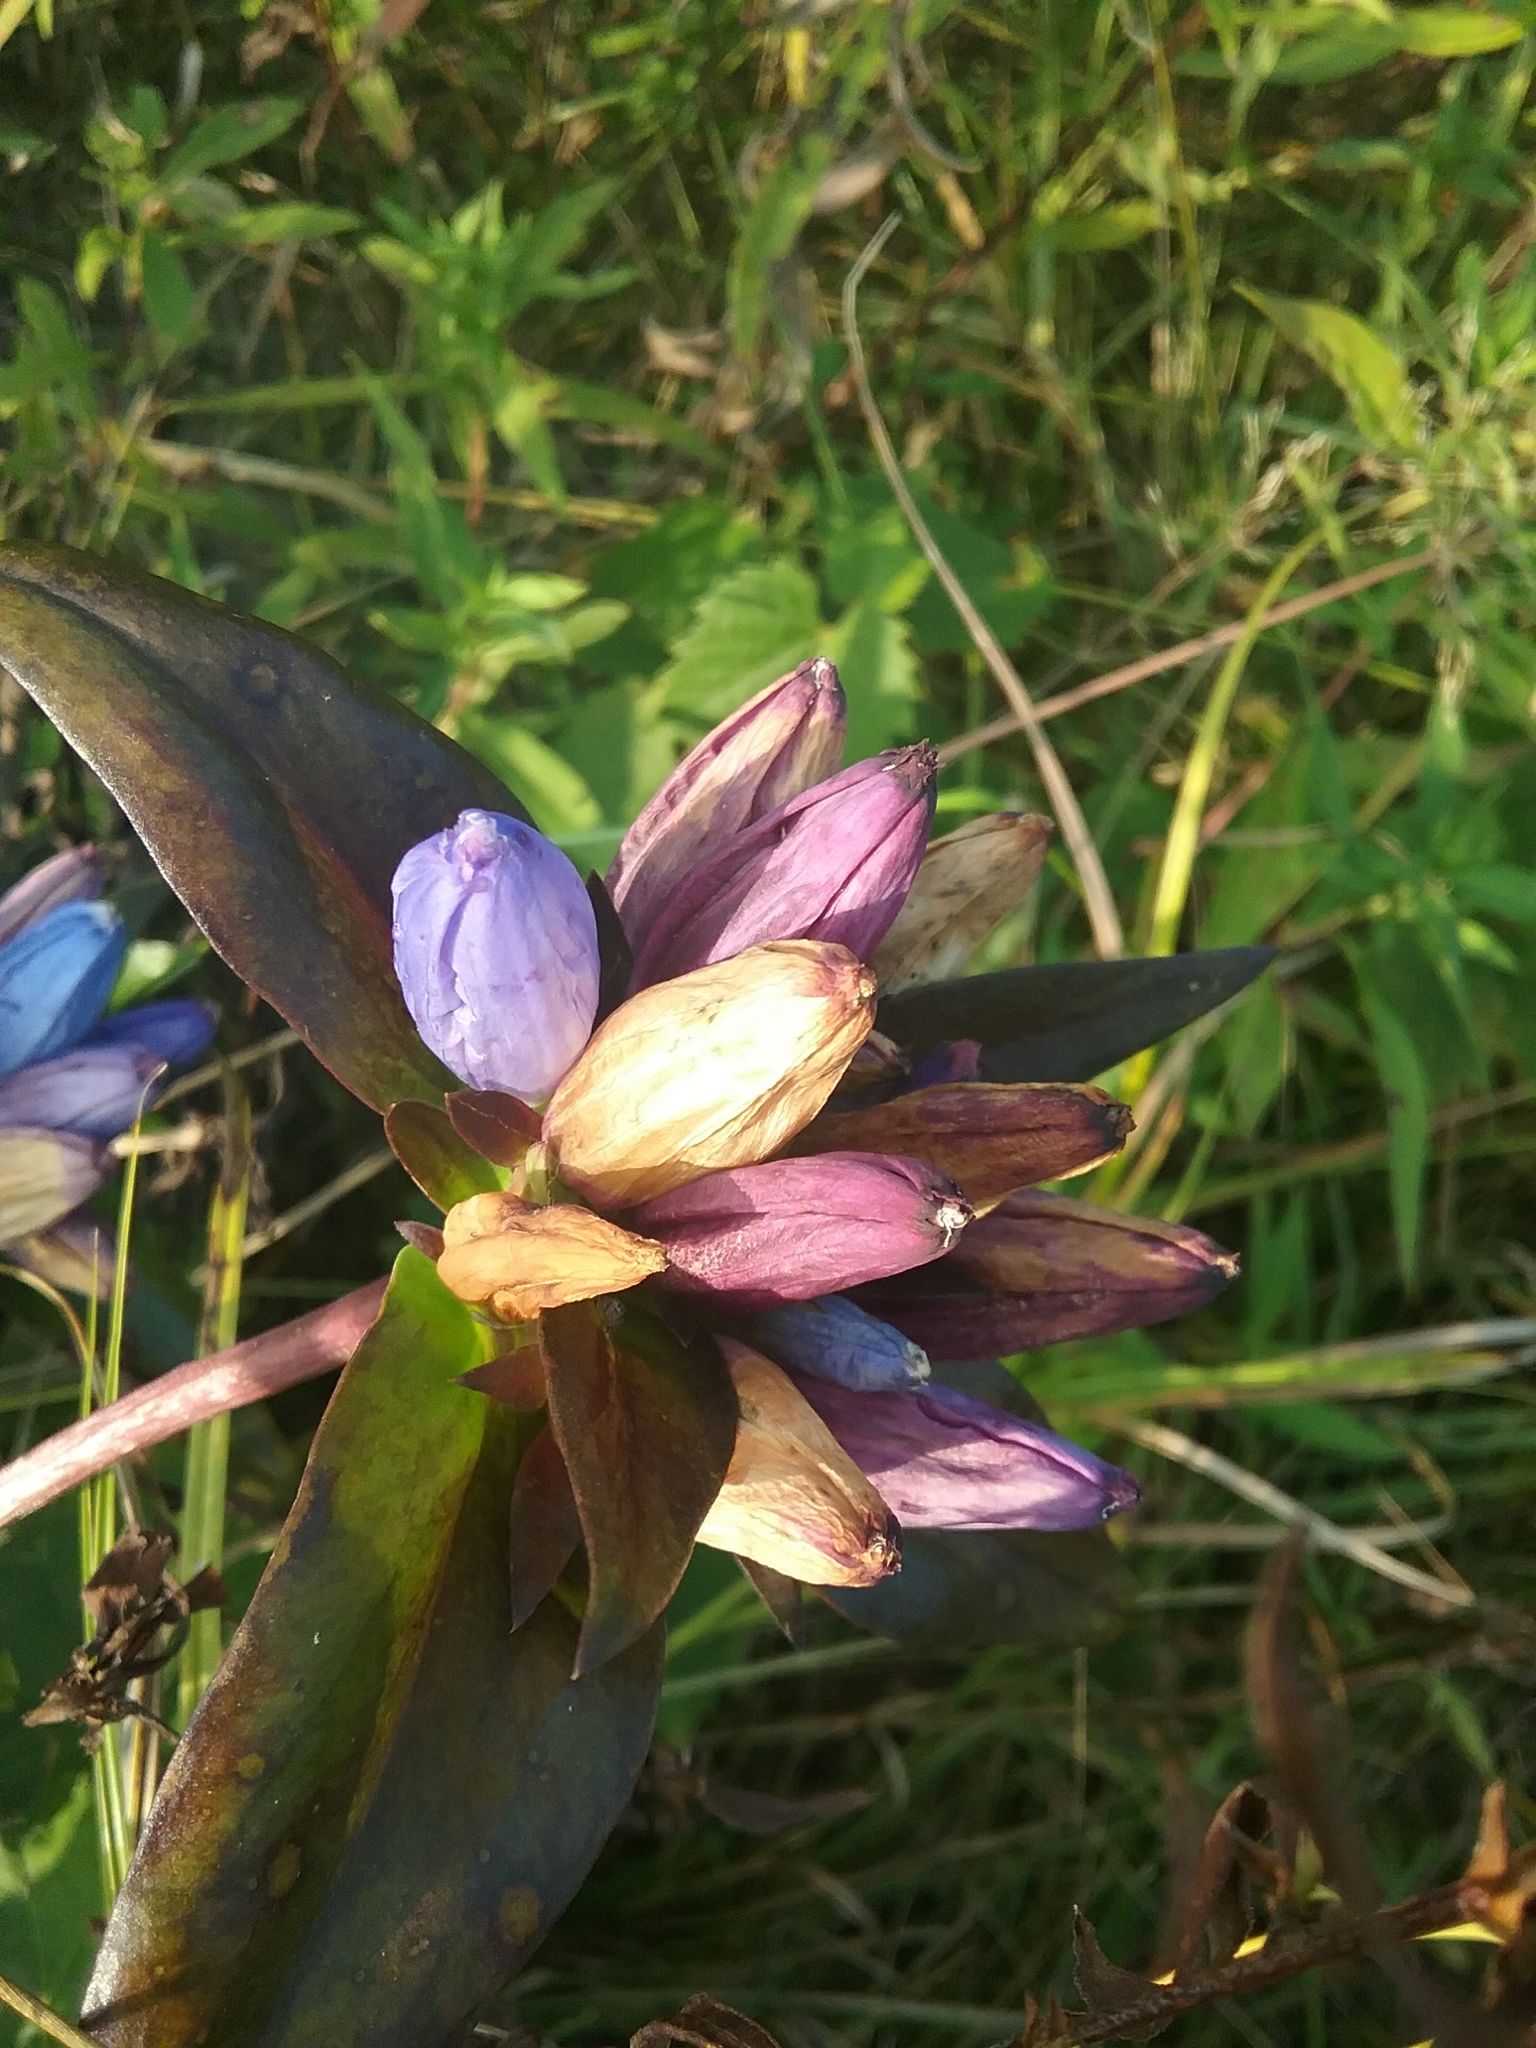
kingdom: Plantae
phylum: Tracheophyta
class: Magnoliopsida
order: Gentianales
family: Gentianaceae
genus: Gentiana
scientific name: Gentiana andrewsii
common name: Bottle gentian
